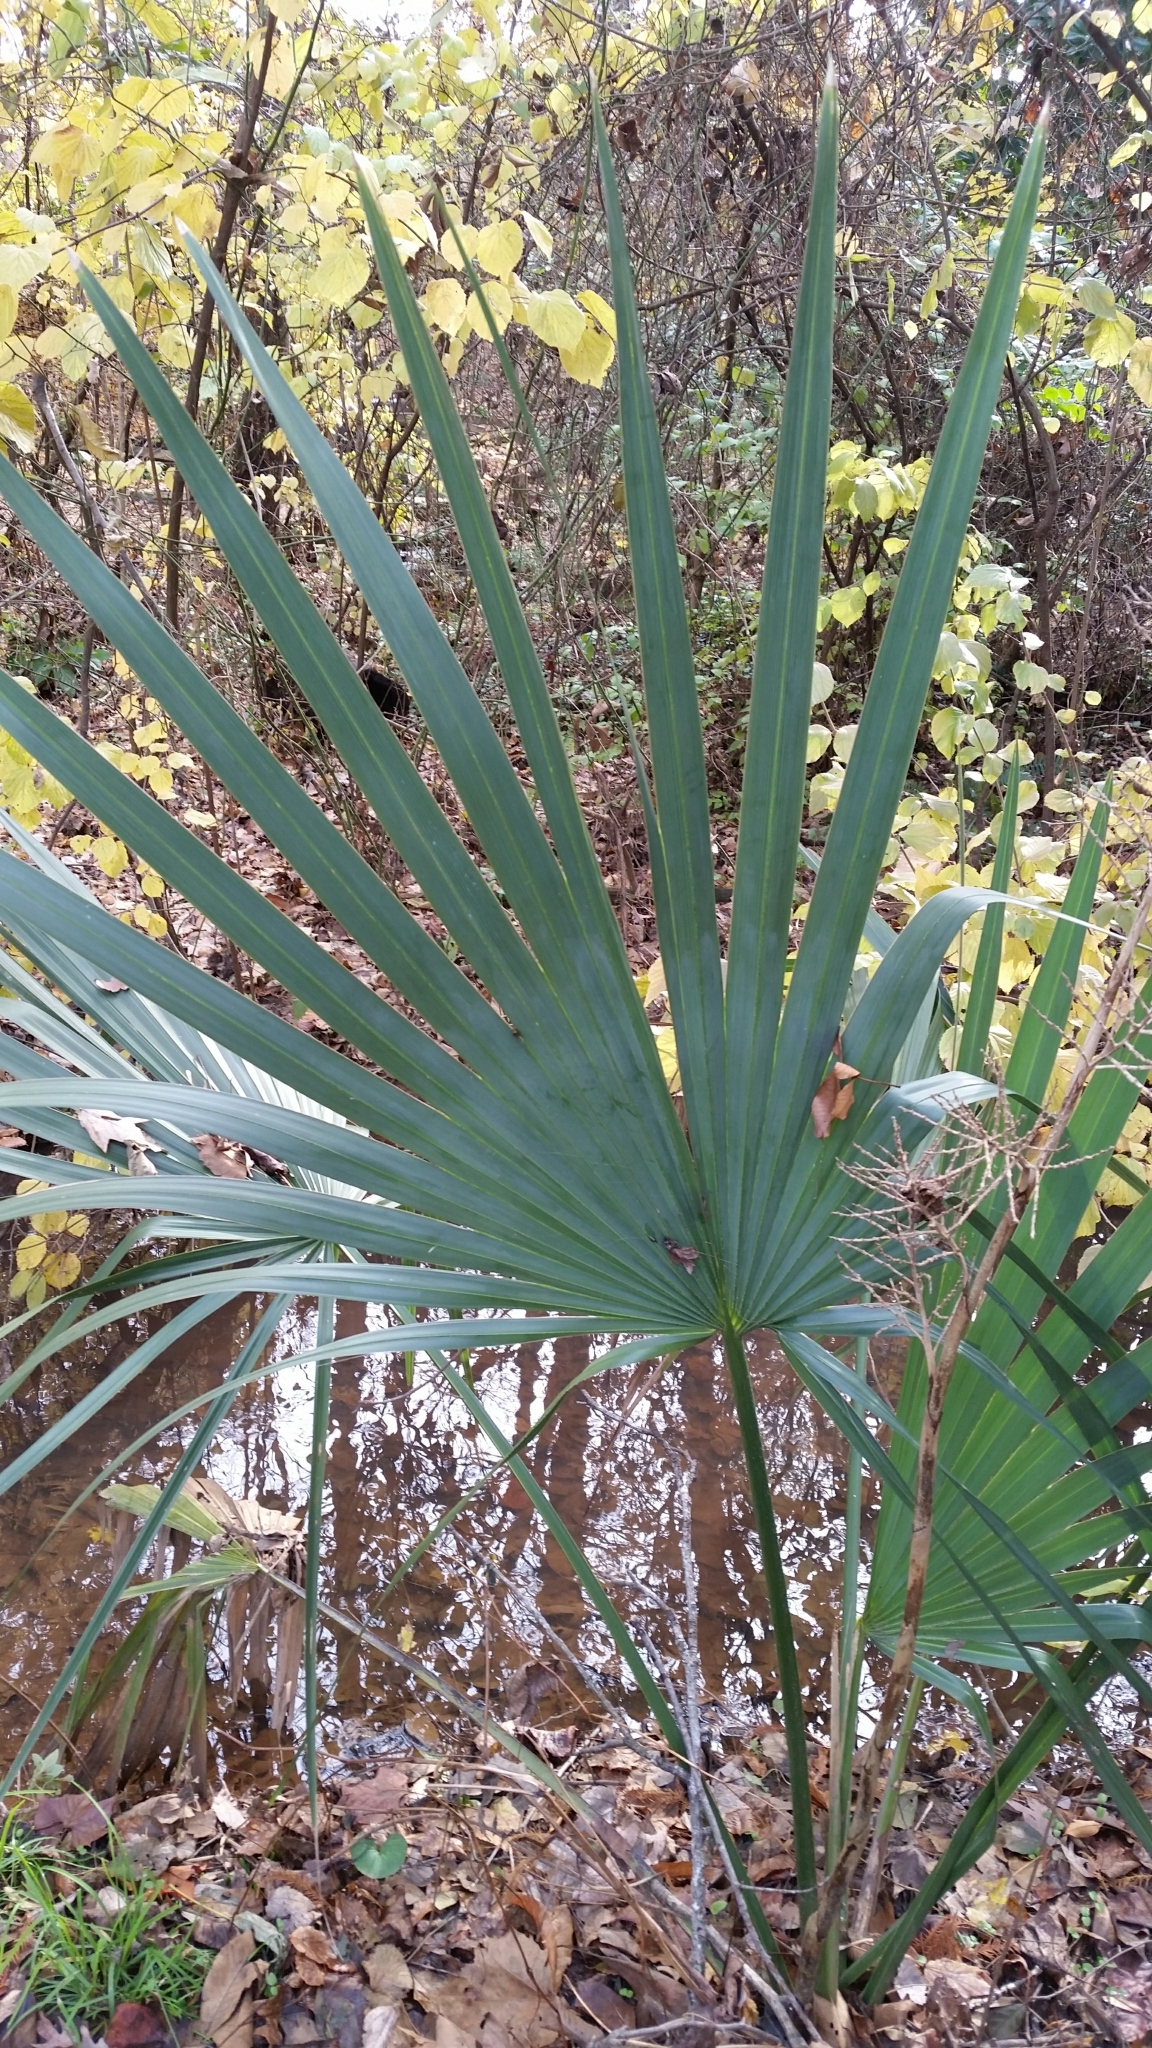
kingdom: Plantae
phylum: Tracheophyta
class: Liliopsida
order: Arecales
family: Arecaceae
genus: Sabal
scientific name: Sabal minor
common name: Dwarf palmetto
